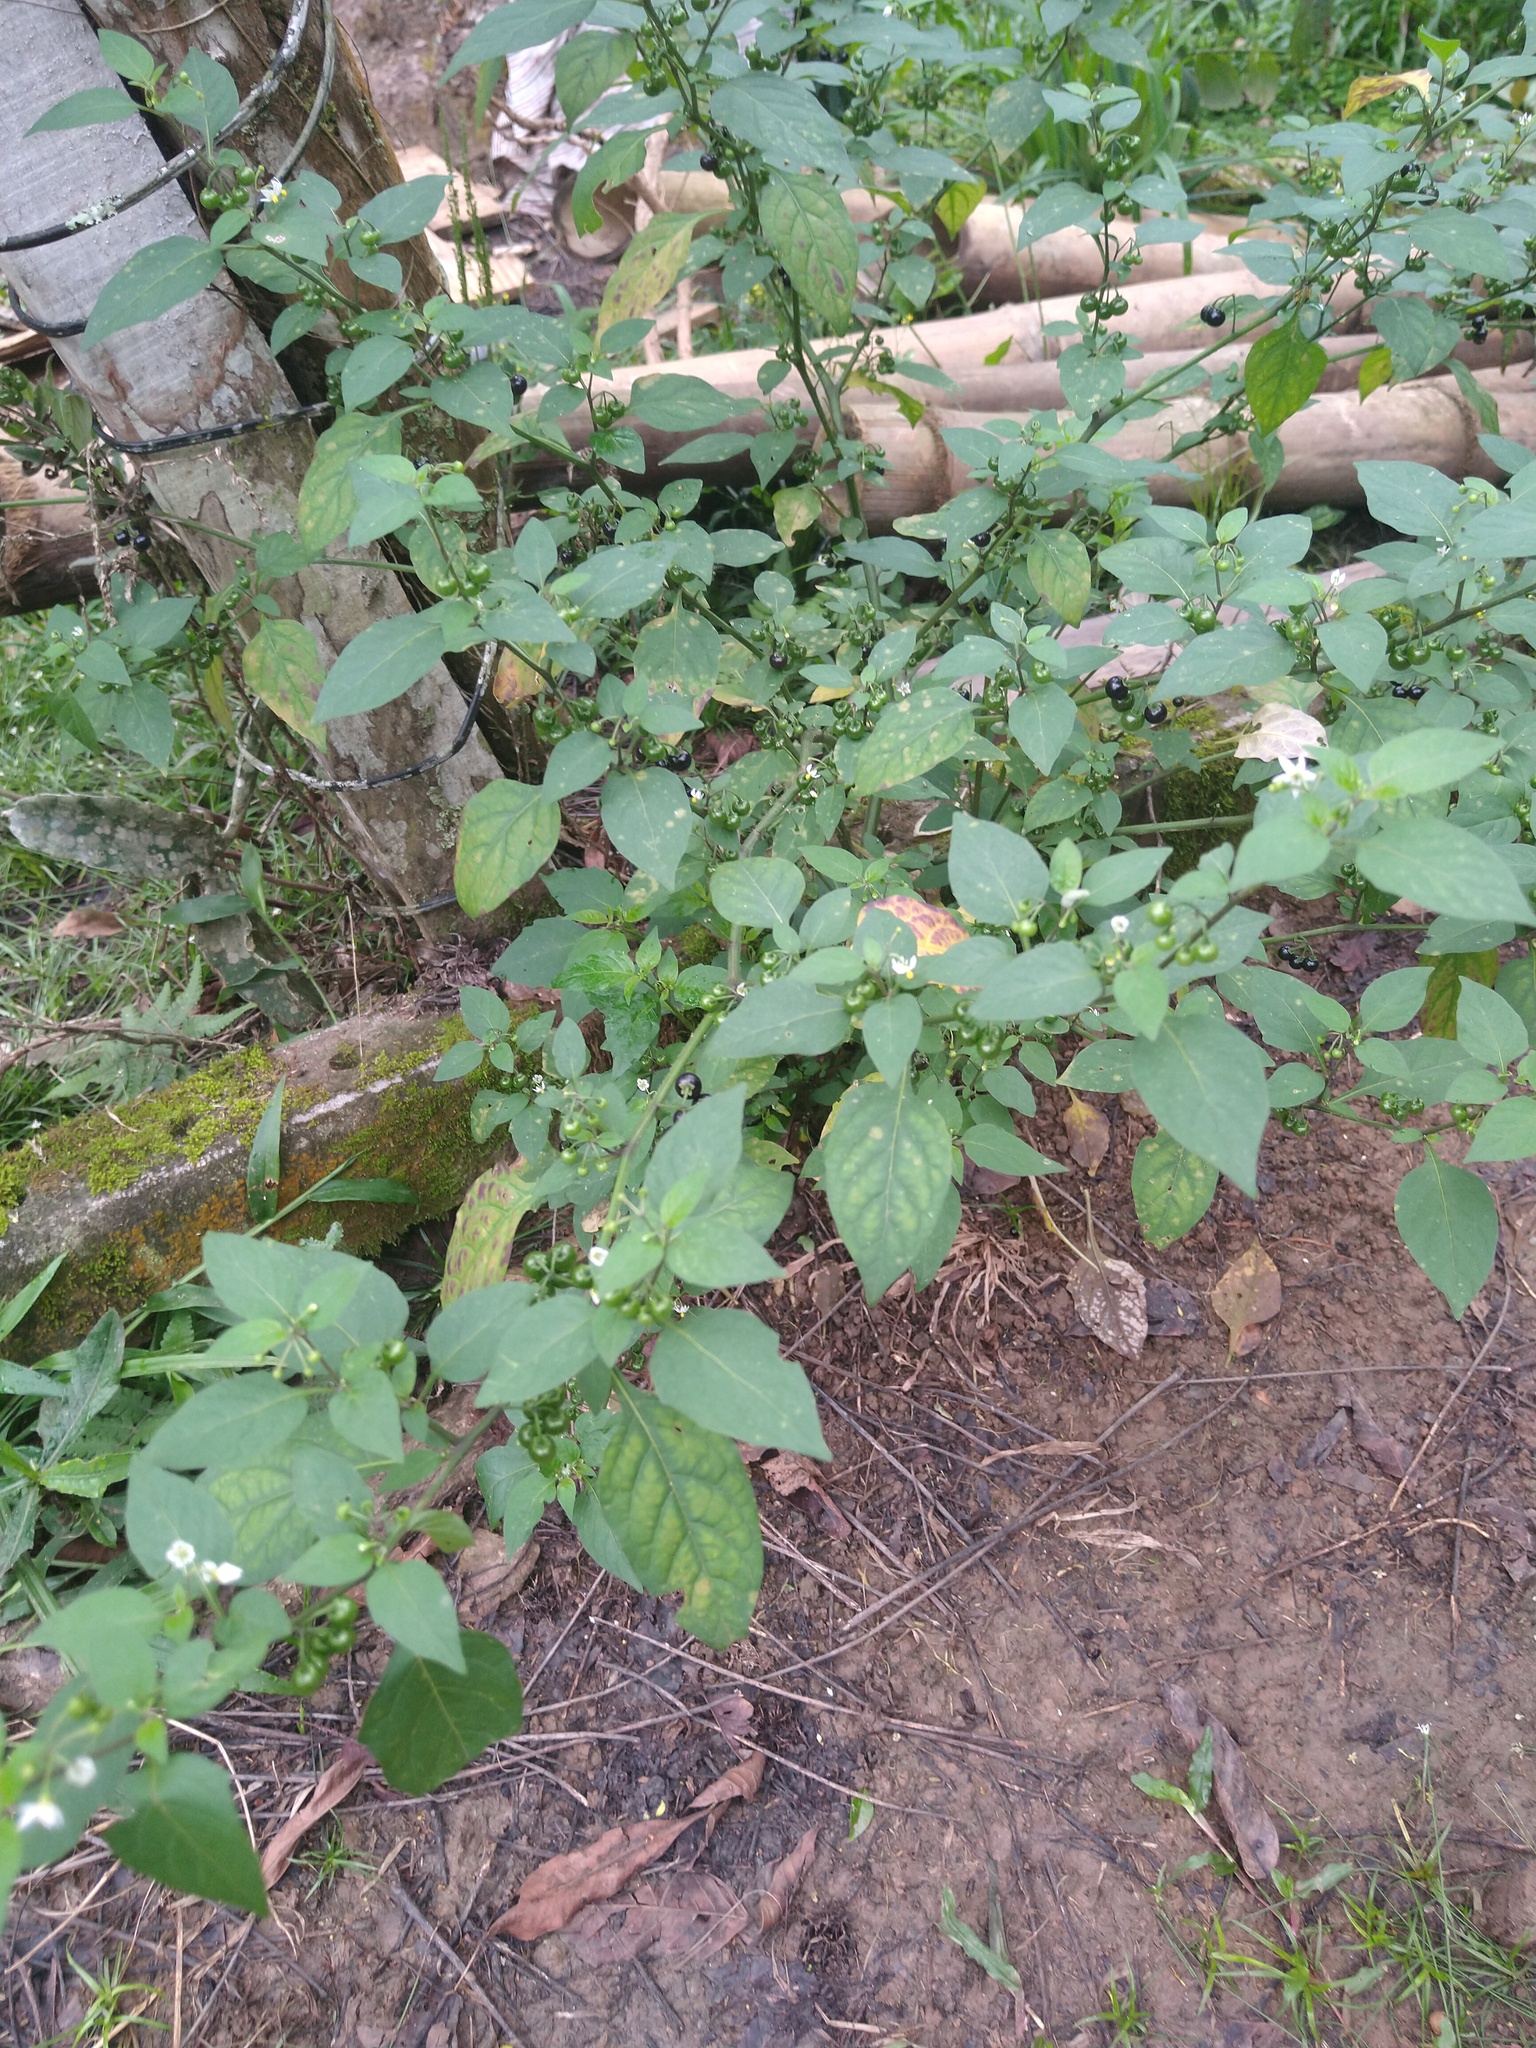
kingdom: Plantae
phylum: Tracheophyta
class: Magnoliopsida
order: Solanales
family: Solanaceae
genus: Solanum
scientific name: Solanum americanum
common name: American black nightshade
